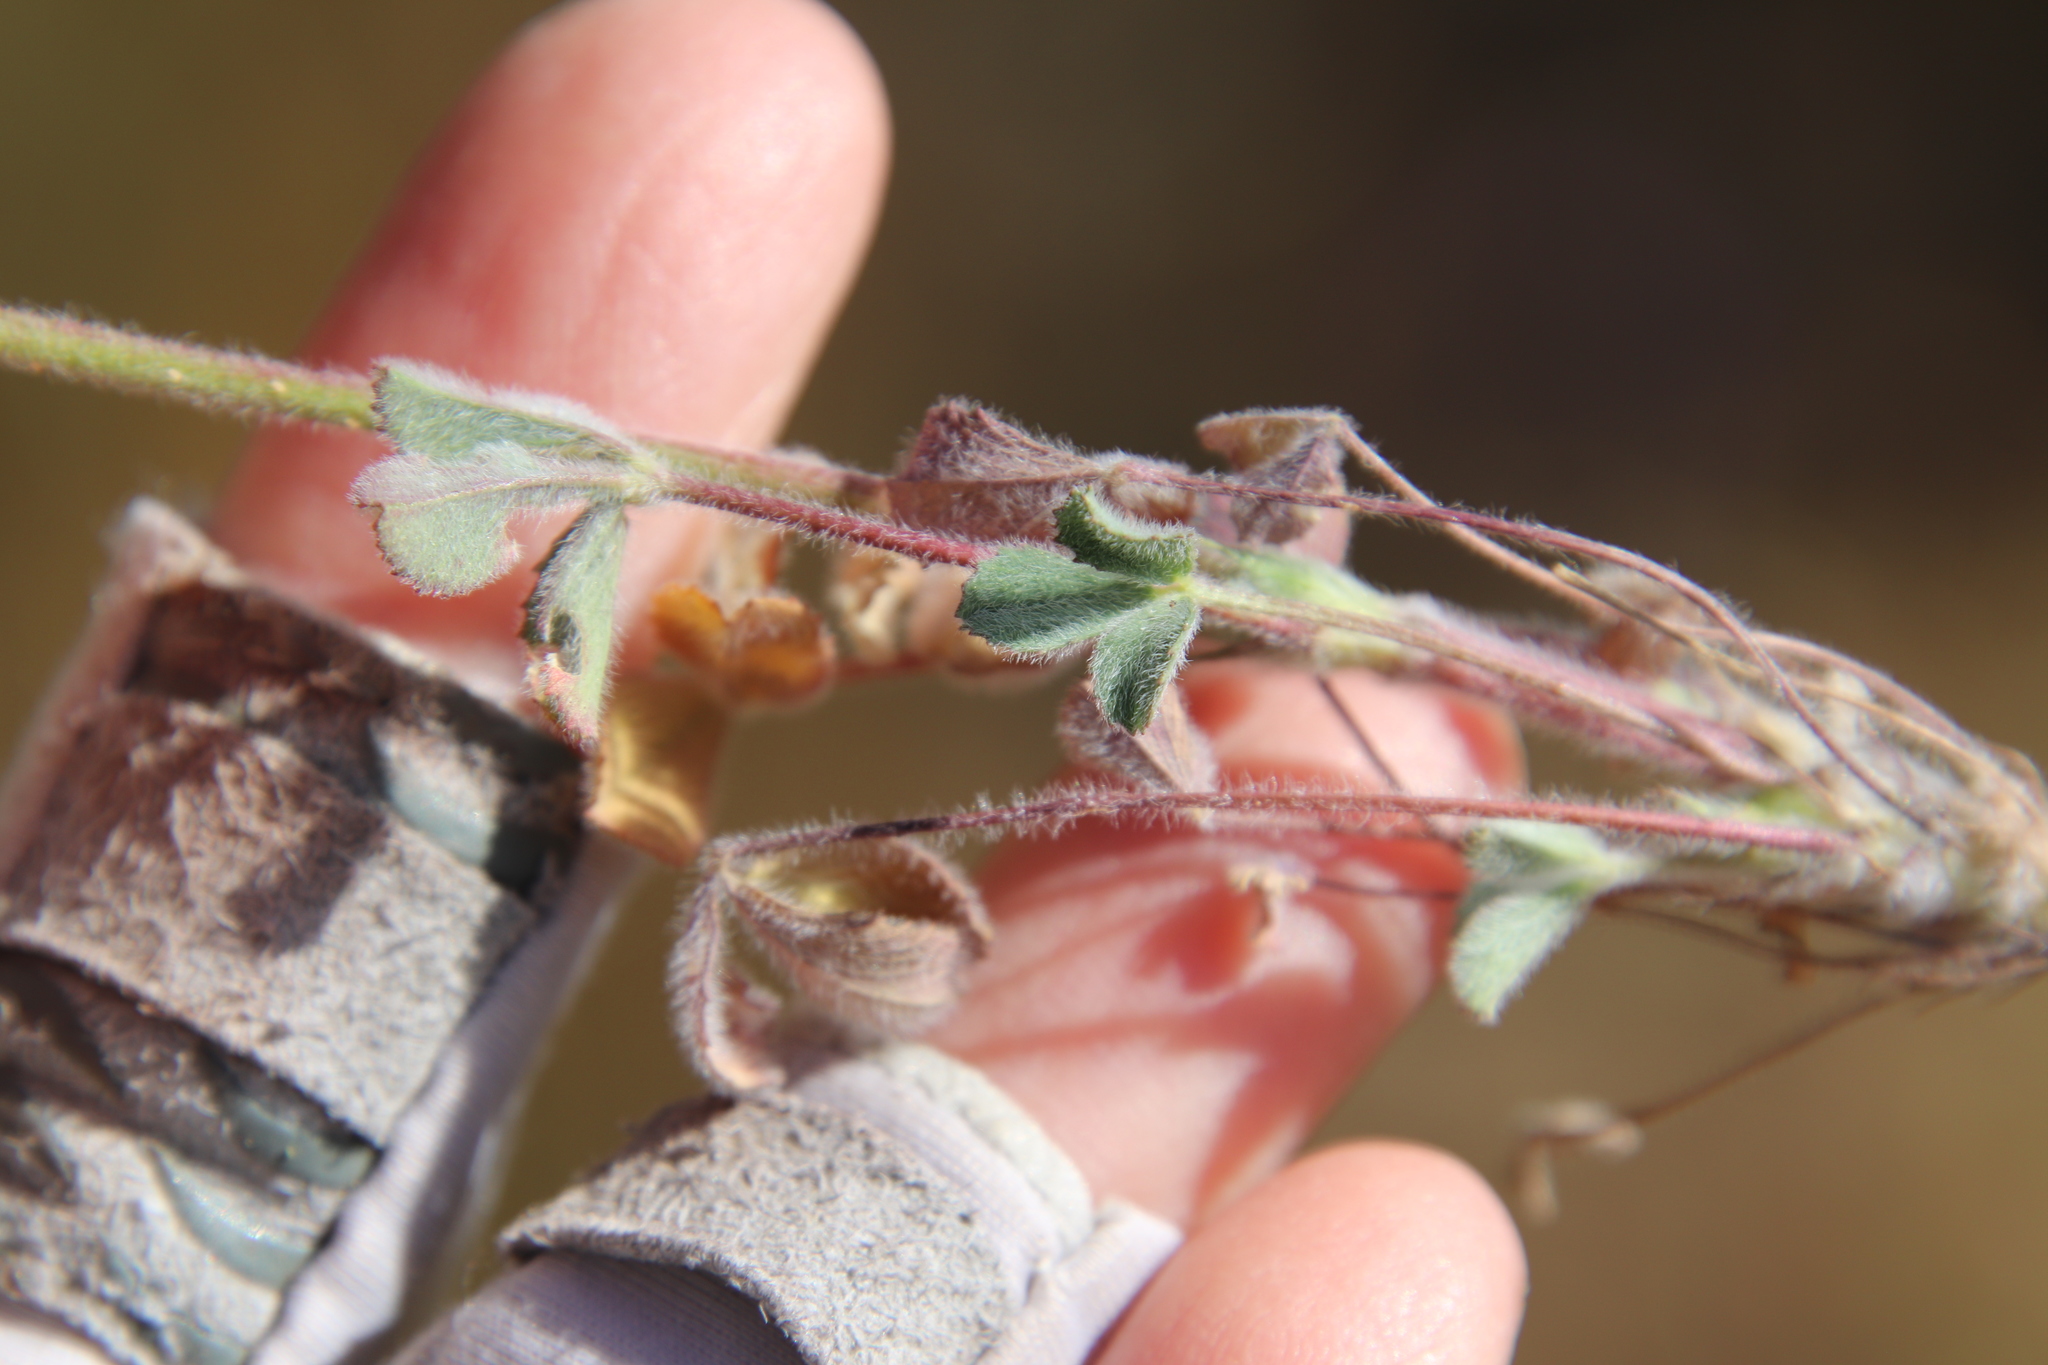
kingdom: Plantae
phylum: Tracheophyta
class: Magnoliopsida
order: Fabales
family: Fabaceae
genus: Trifolium
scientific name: Trifolium albopurpureum
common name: Rancheria clover
